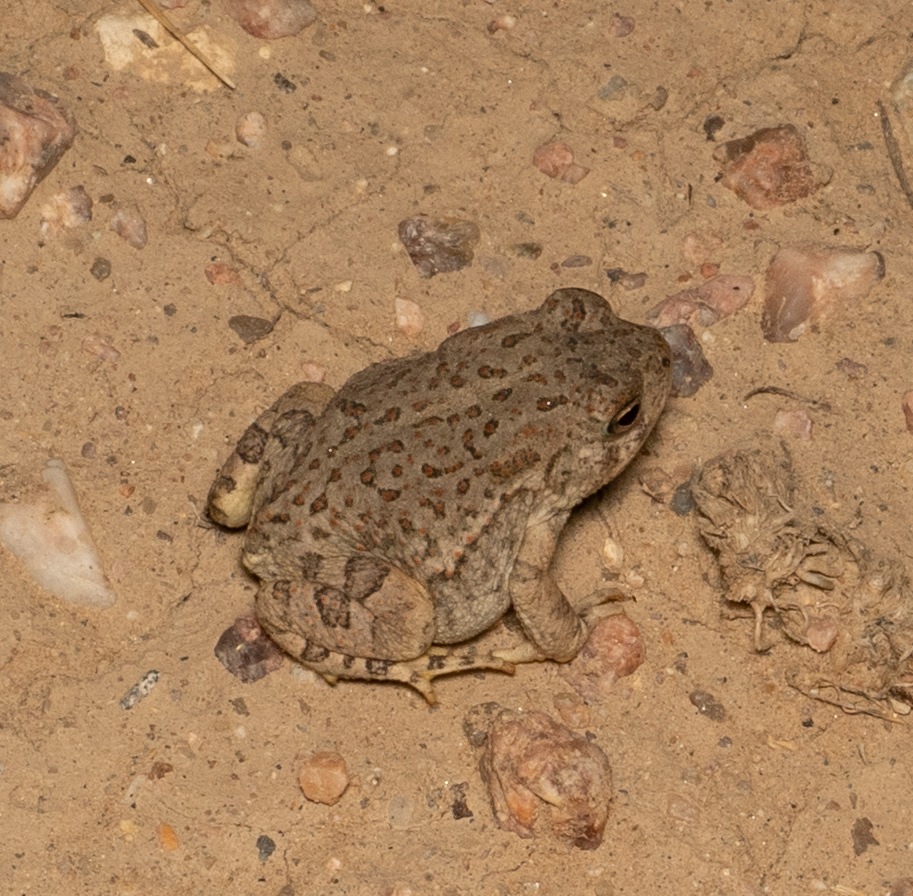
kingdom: Animalia
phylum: Chordata
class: Amphibia
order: Anura
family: Bufonidae
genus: Anaxyrus
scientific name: Anaxyrus woodhousii
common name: Woodhouse's toad
